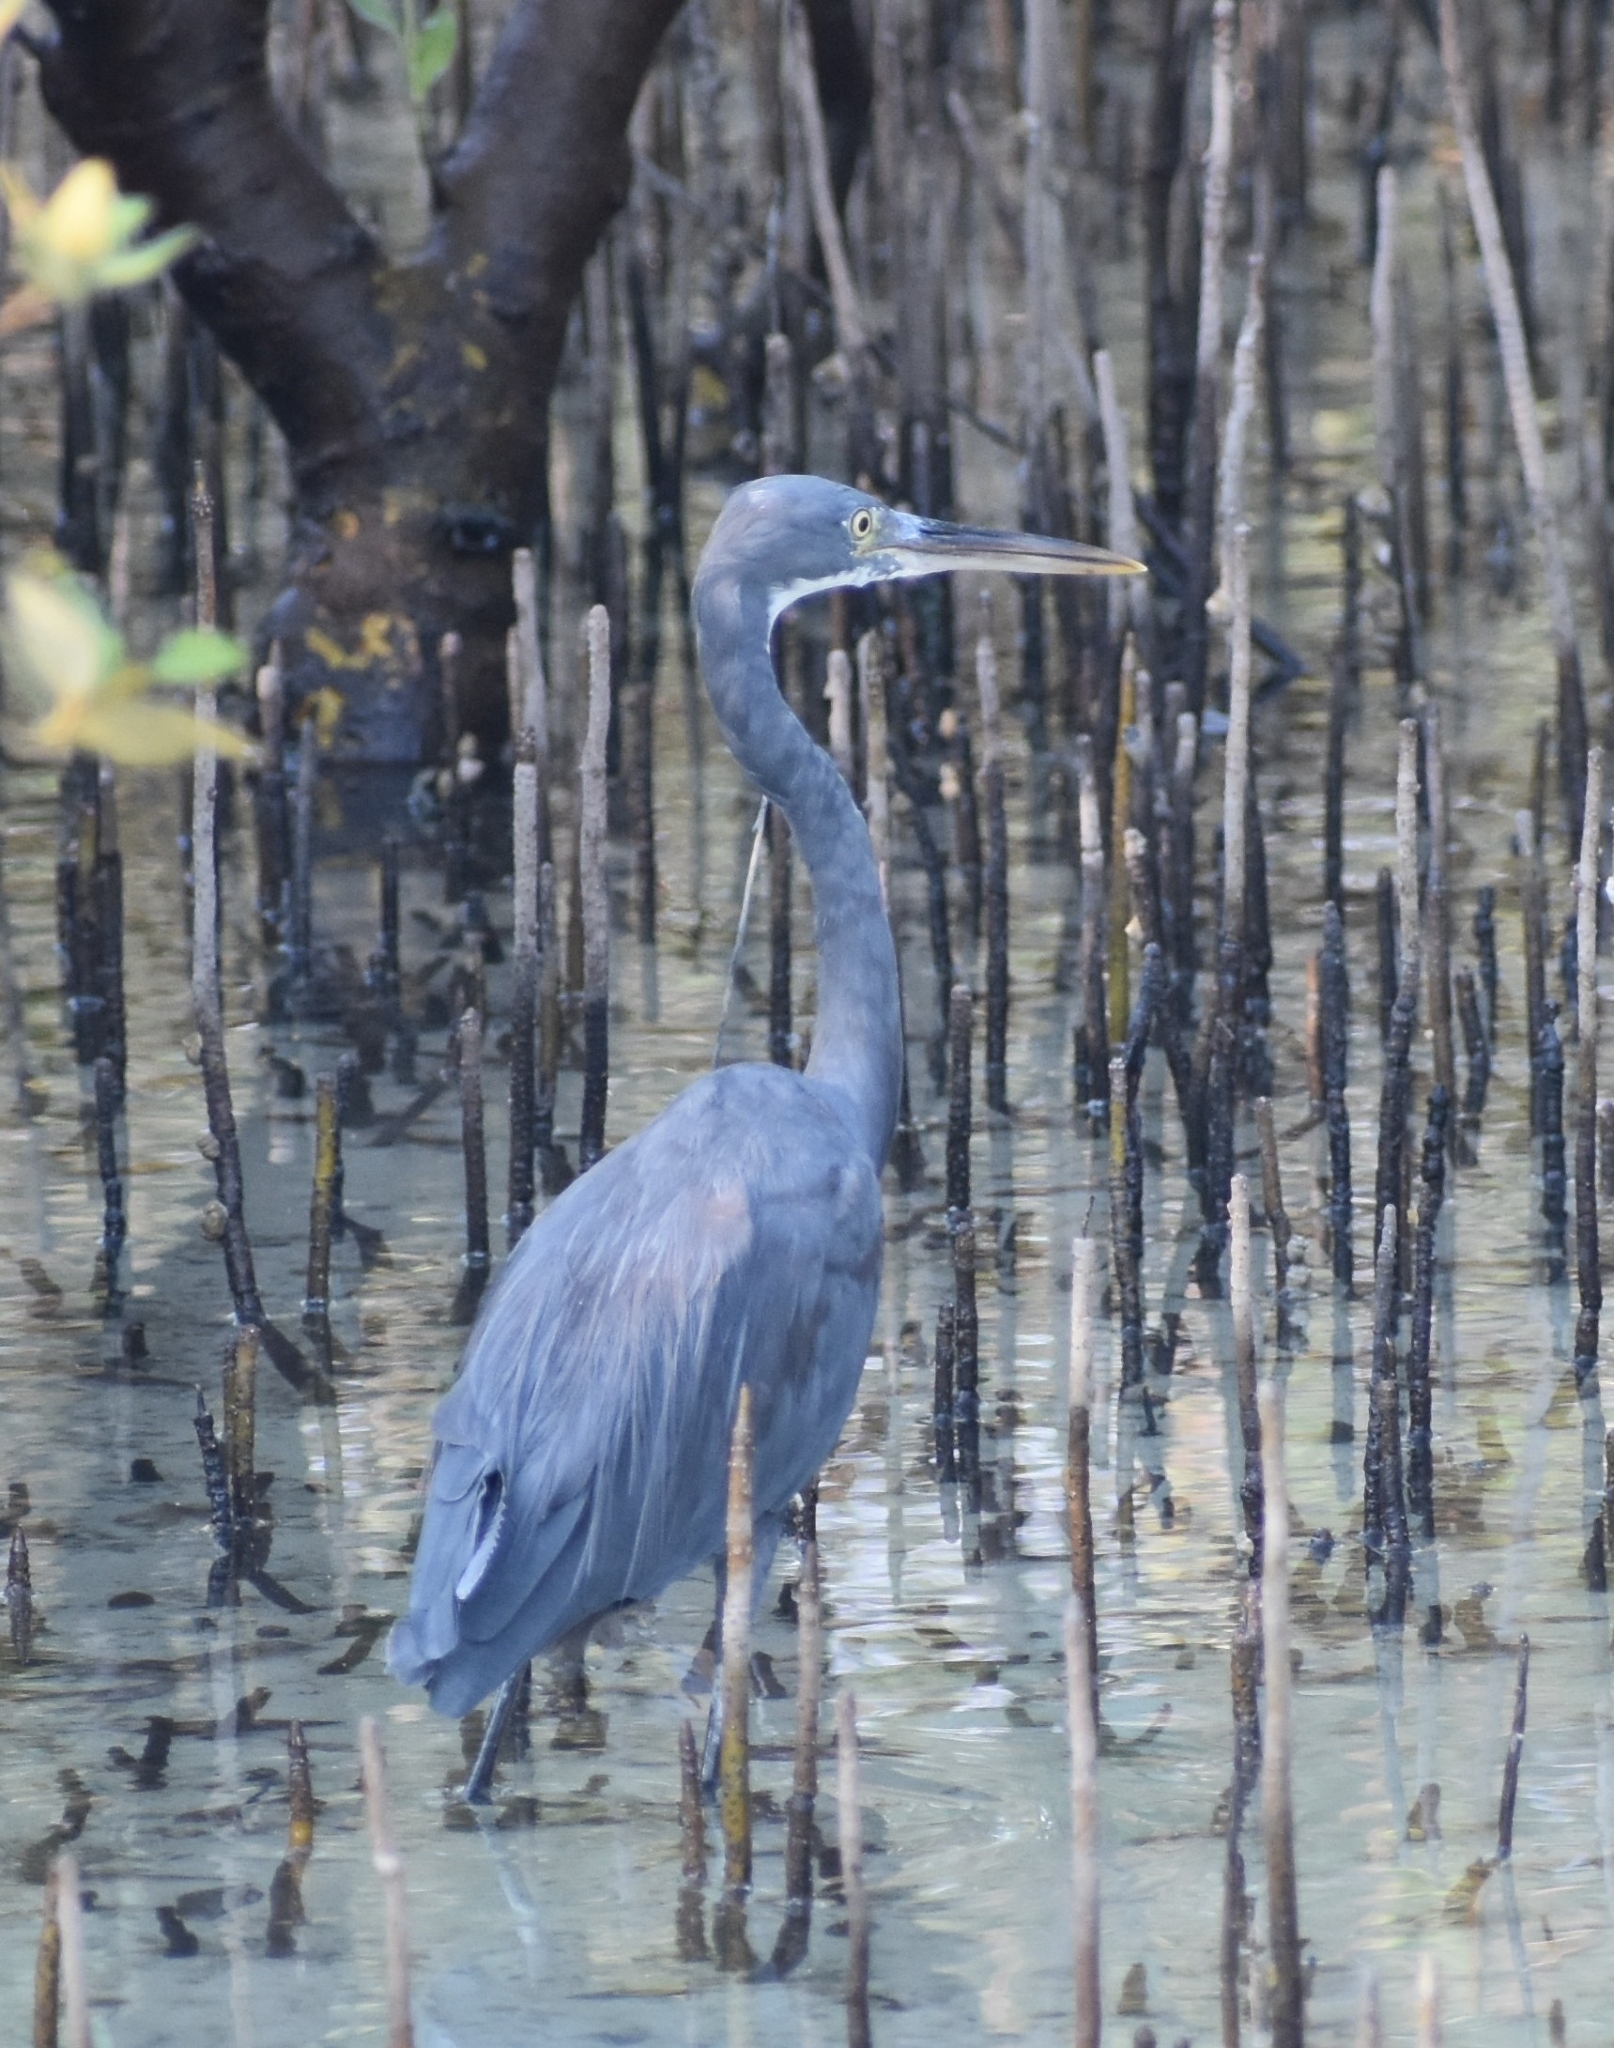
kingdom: Animalia
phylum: Chordata
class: Aves
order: Pelecaniformes
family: Ardeidae
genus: Egretta
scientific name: Egretta gularis
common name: Western reef-heron
